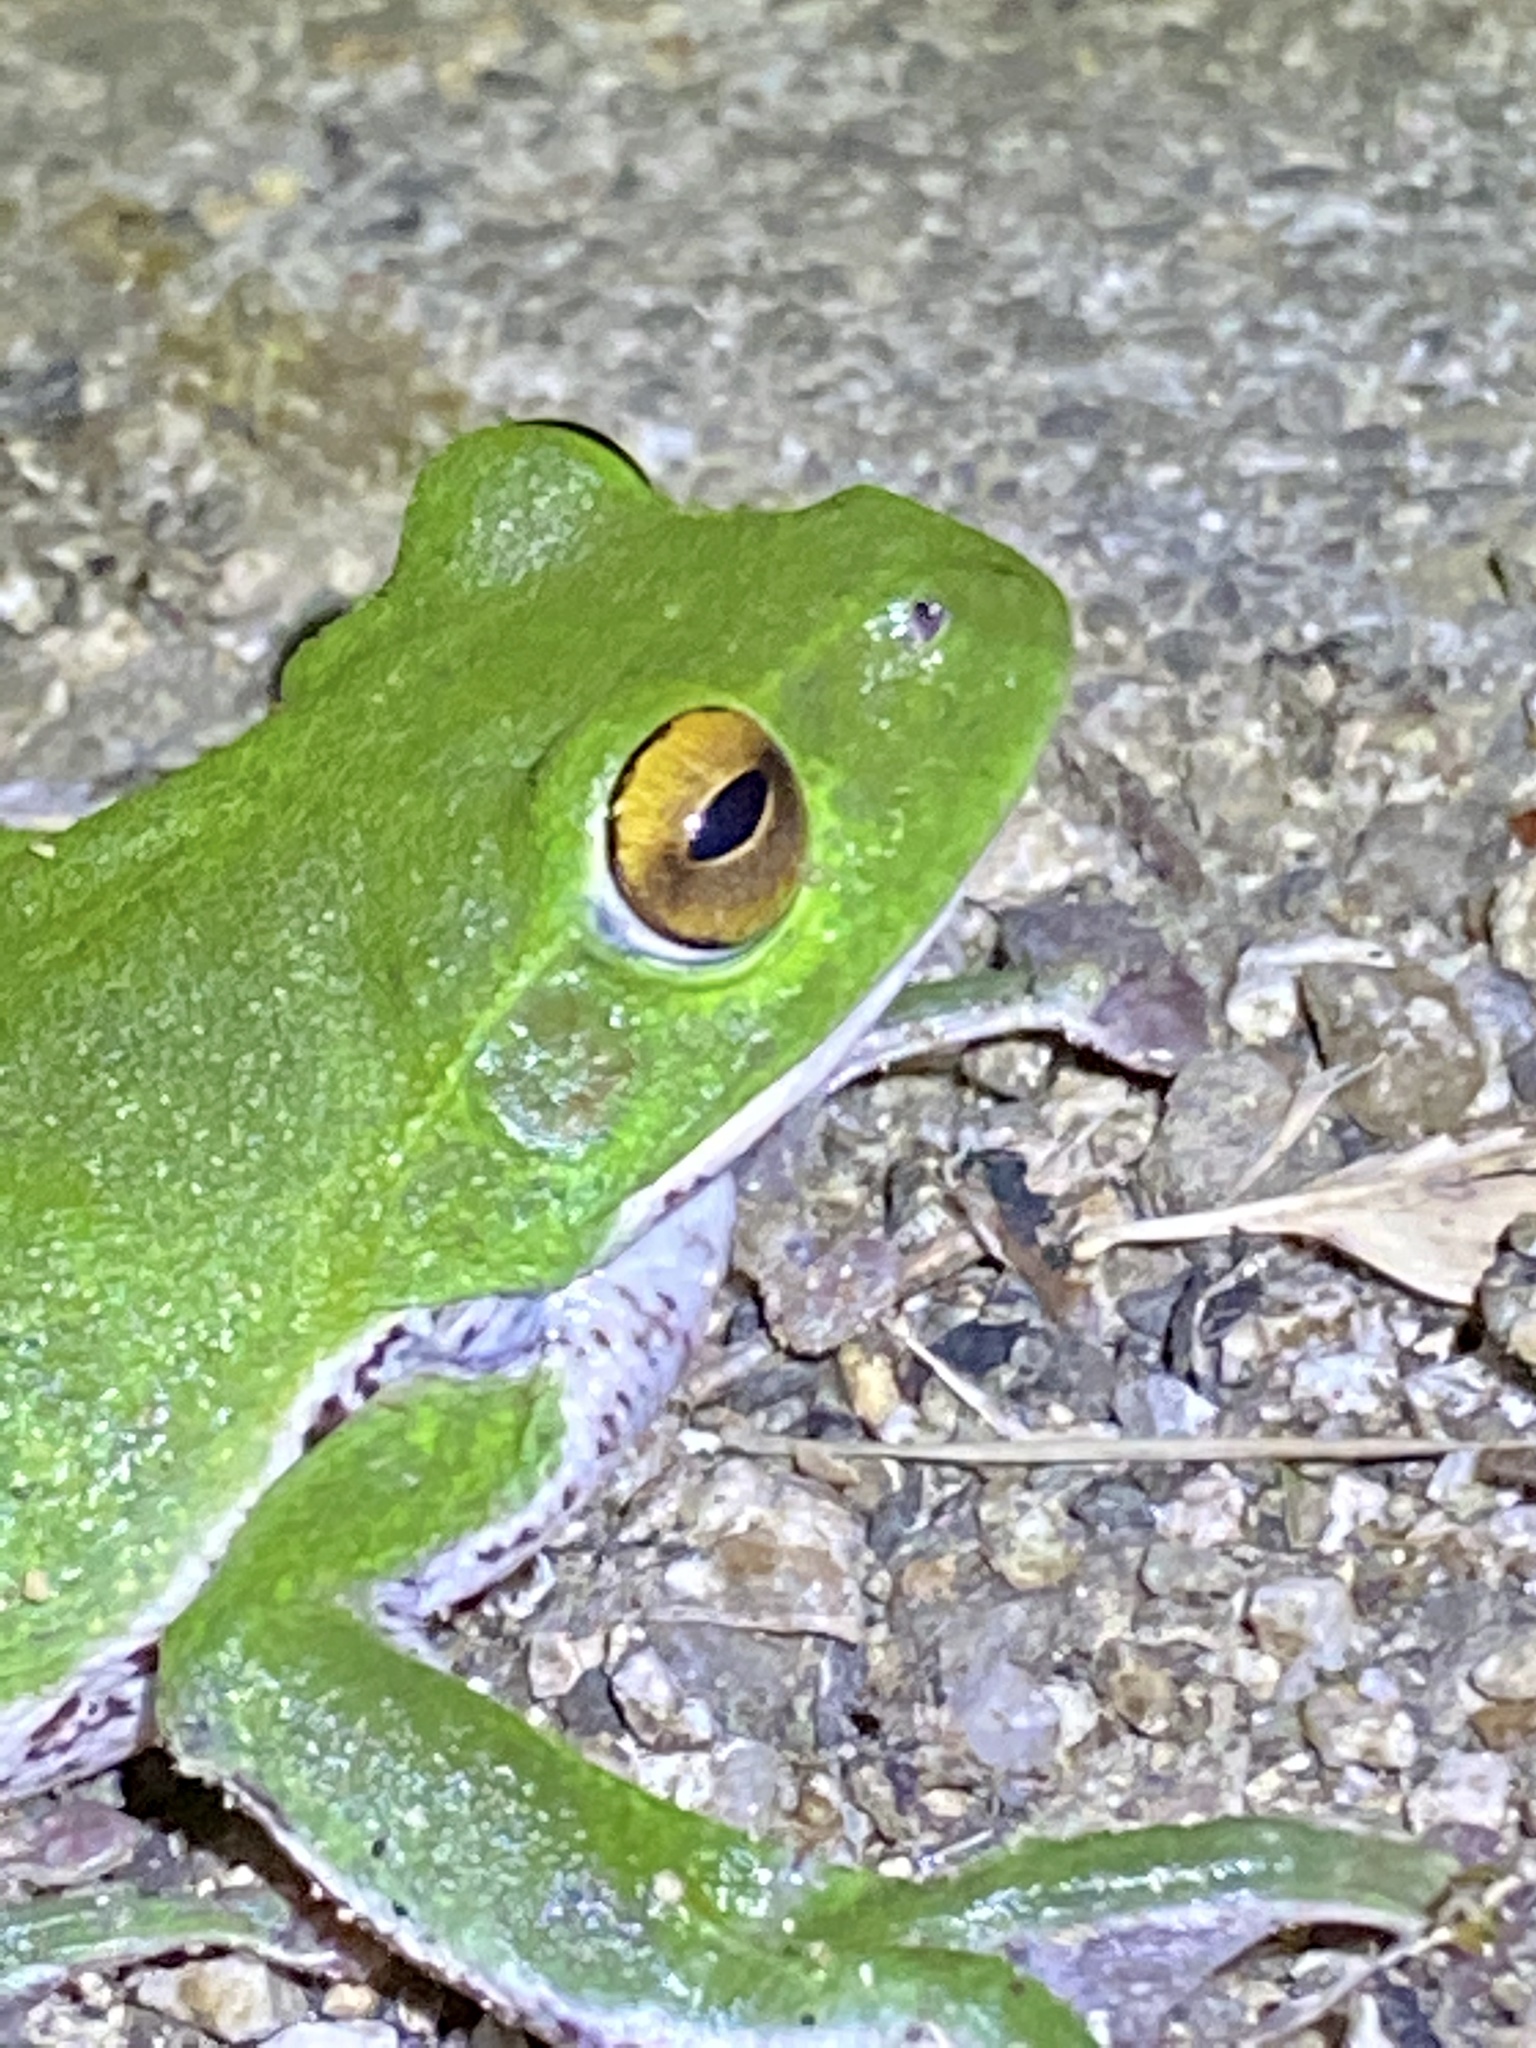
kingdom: Animalia
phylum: Chordata
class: Amphibia
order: Anura
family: Rhacophoridae
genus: Zhangixalus
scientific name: Zhangixalus arboreus
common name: Forest green tree frog
